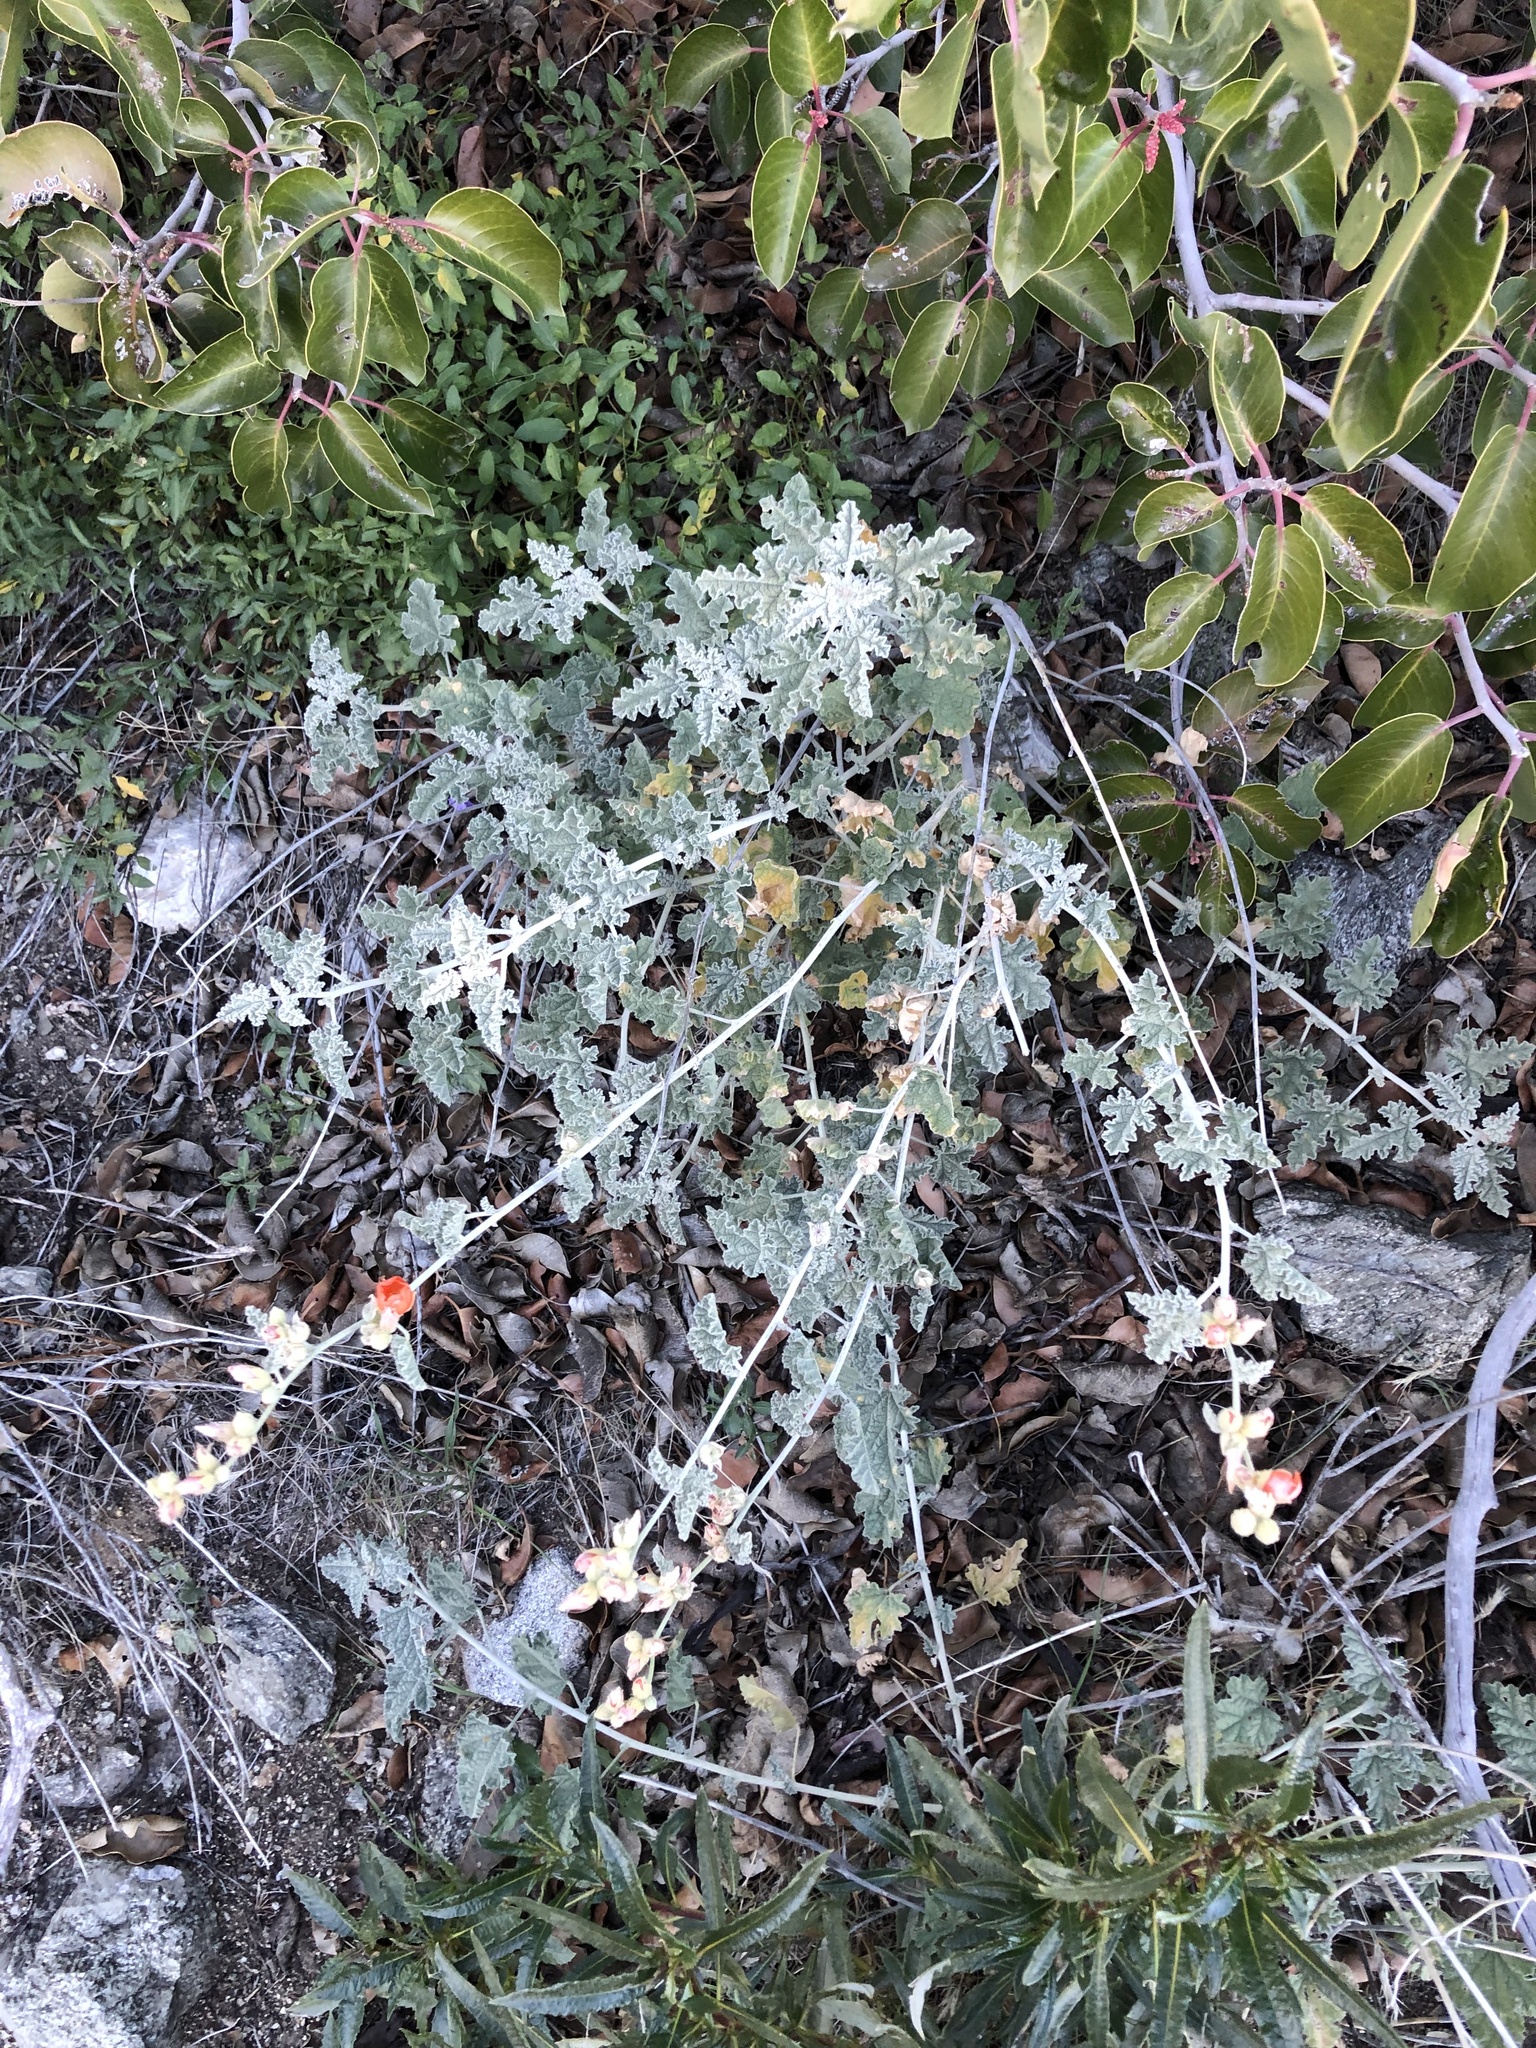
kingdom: Plantae
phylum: Tracheophyta
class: Magnoliopsida
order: Malvales
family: Malvaceae
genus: Sphaeralcea
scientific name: Sphaeralcea ambigua
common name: Apricot globe-mallow
